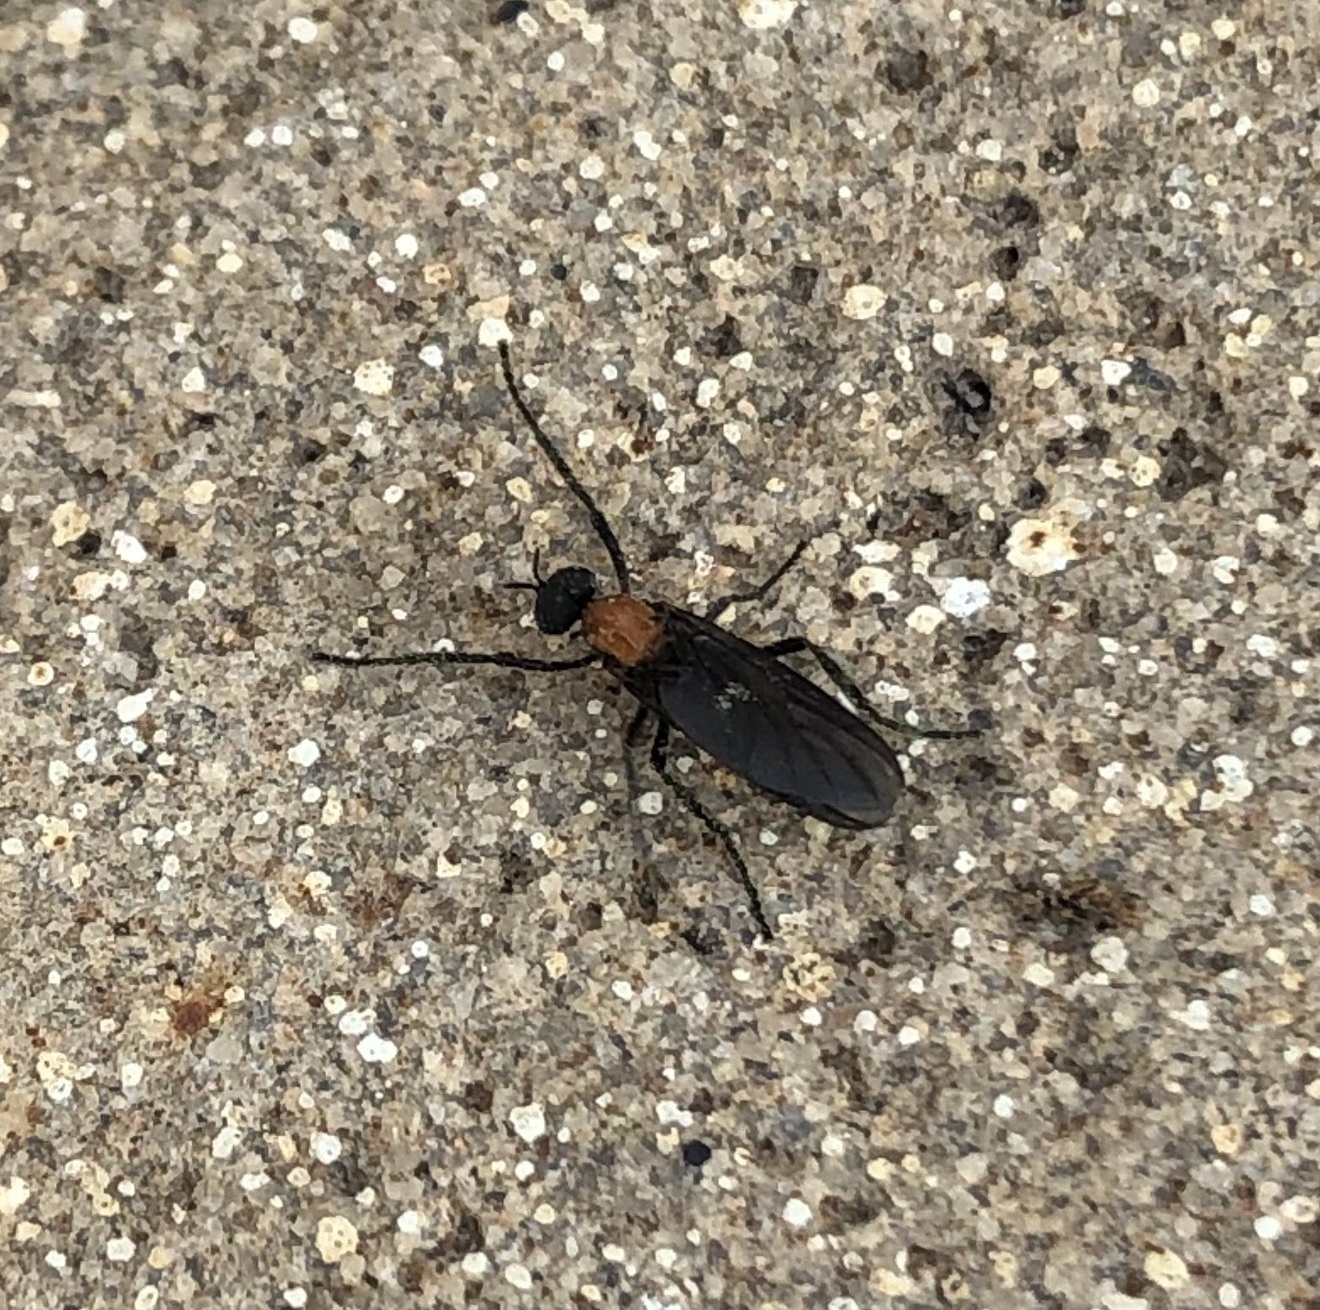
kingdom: Animalia
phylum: Arthropoda
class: Insecta
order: Diptera
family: Bibionidae
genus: Plecia
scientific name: Plecia nearctica
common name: March fly
